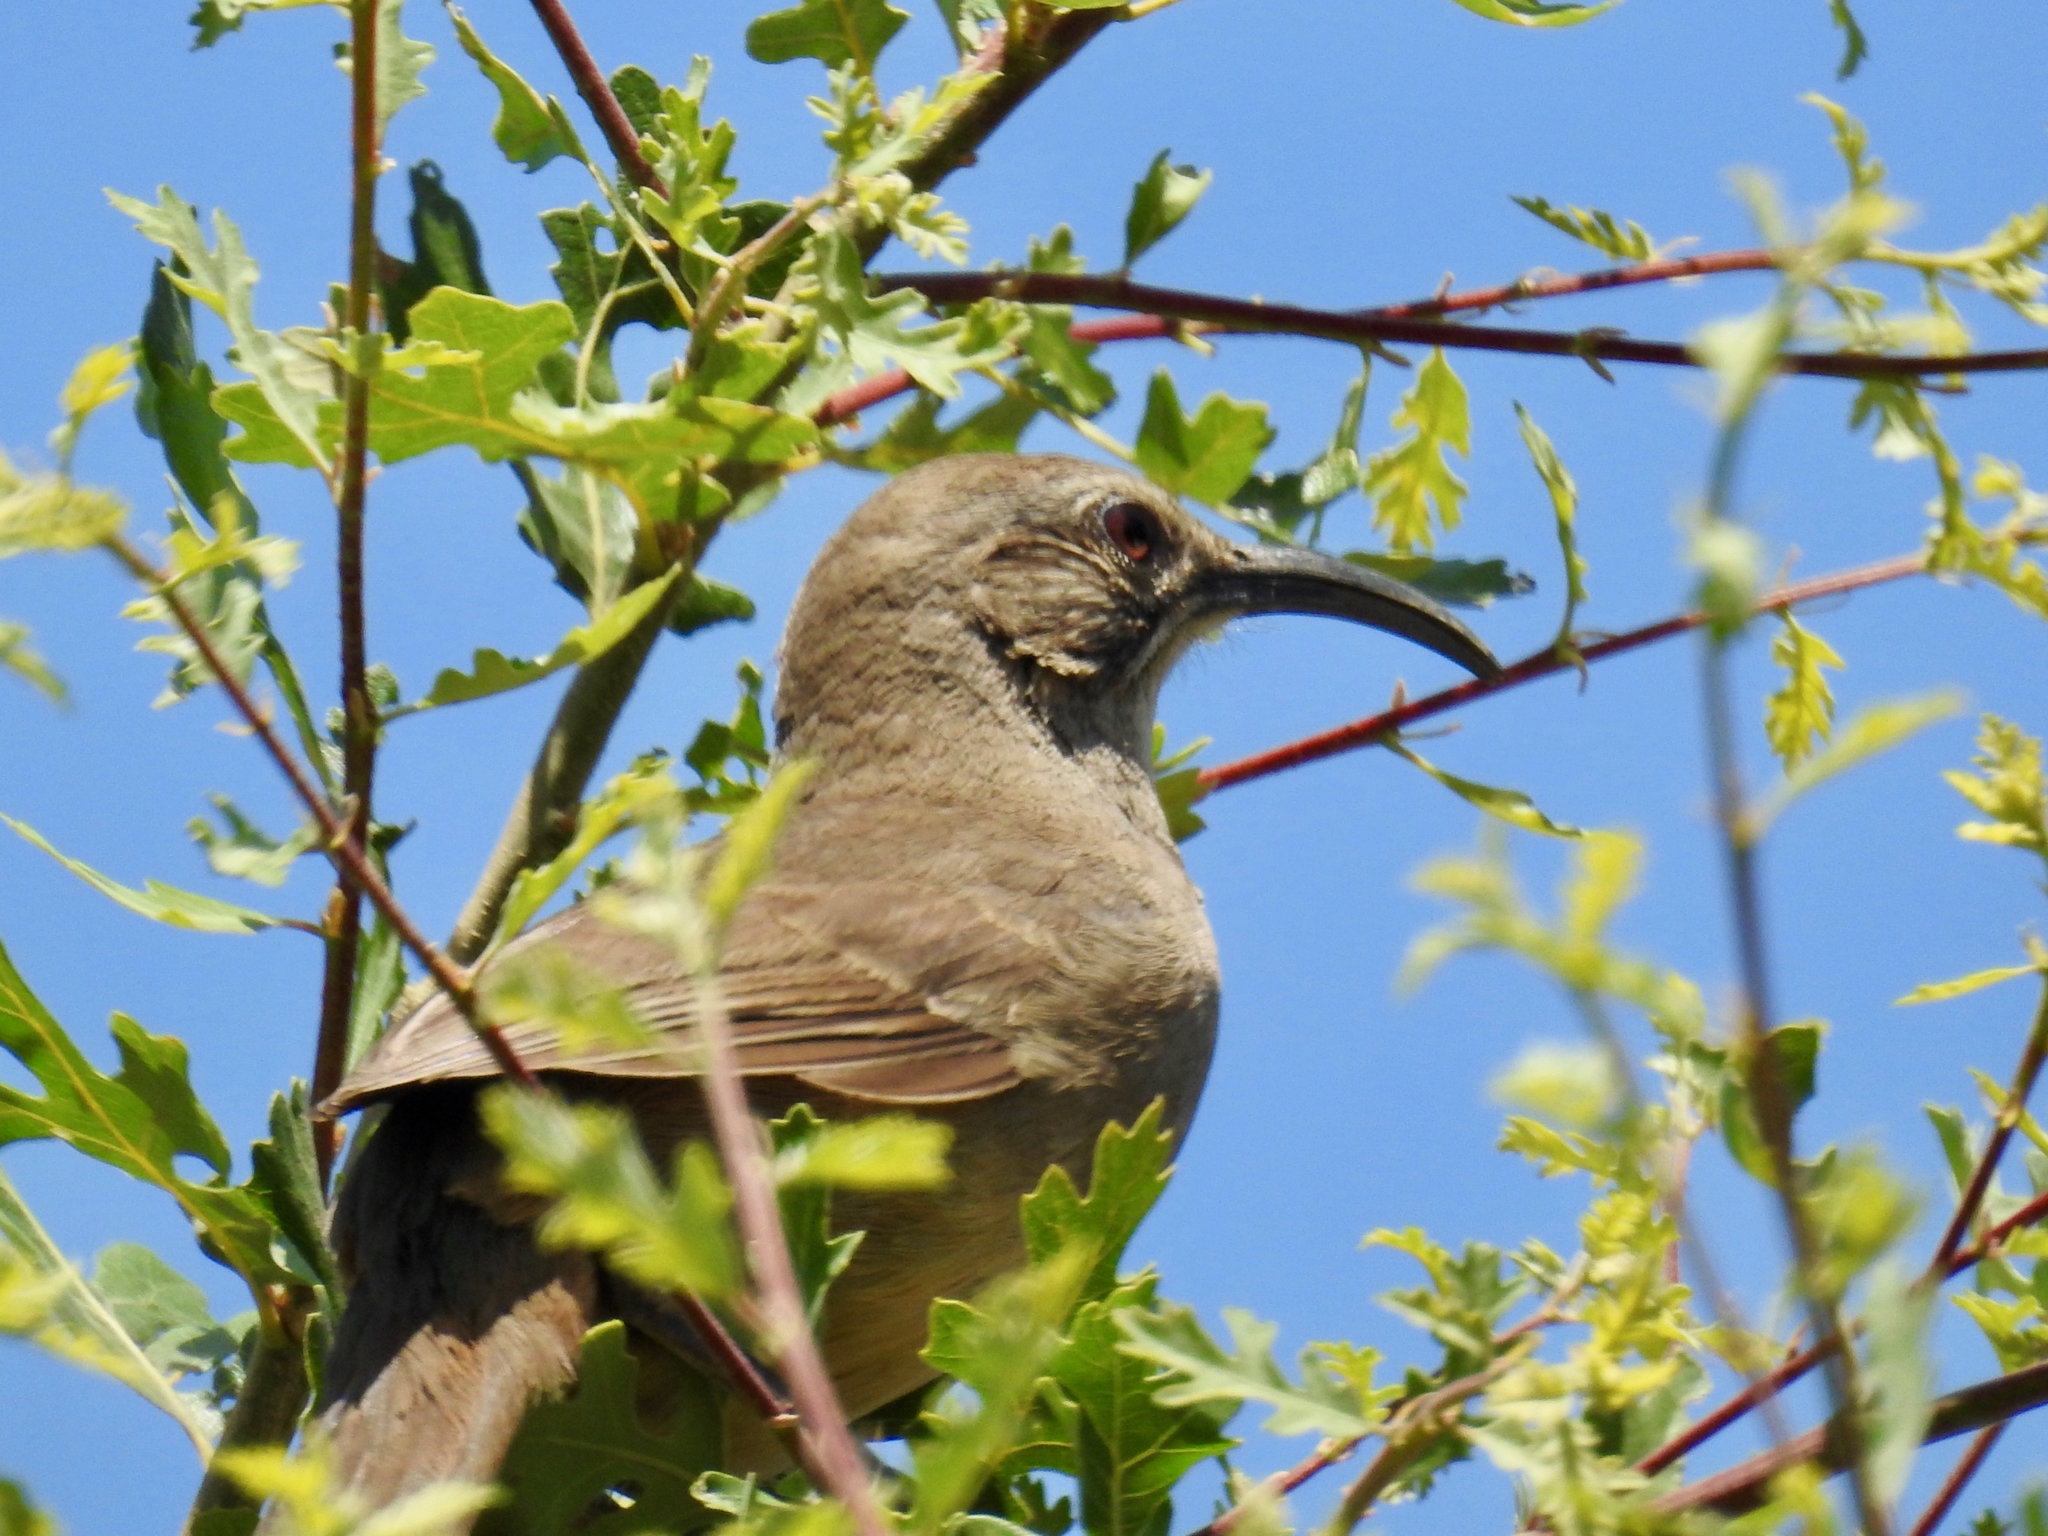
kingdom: Animalia
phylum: Chordata
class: Aves
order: Passeriformes
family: Mimidae
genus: Toxostoma
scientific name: Toxostoma redivivum
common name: California thrasher
